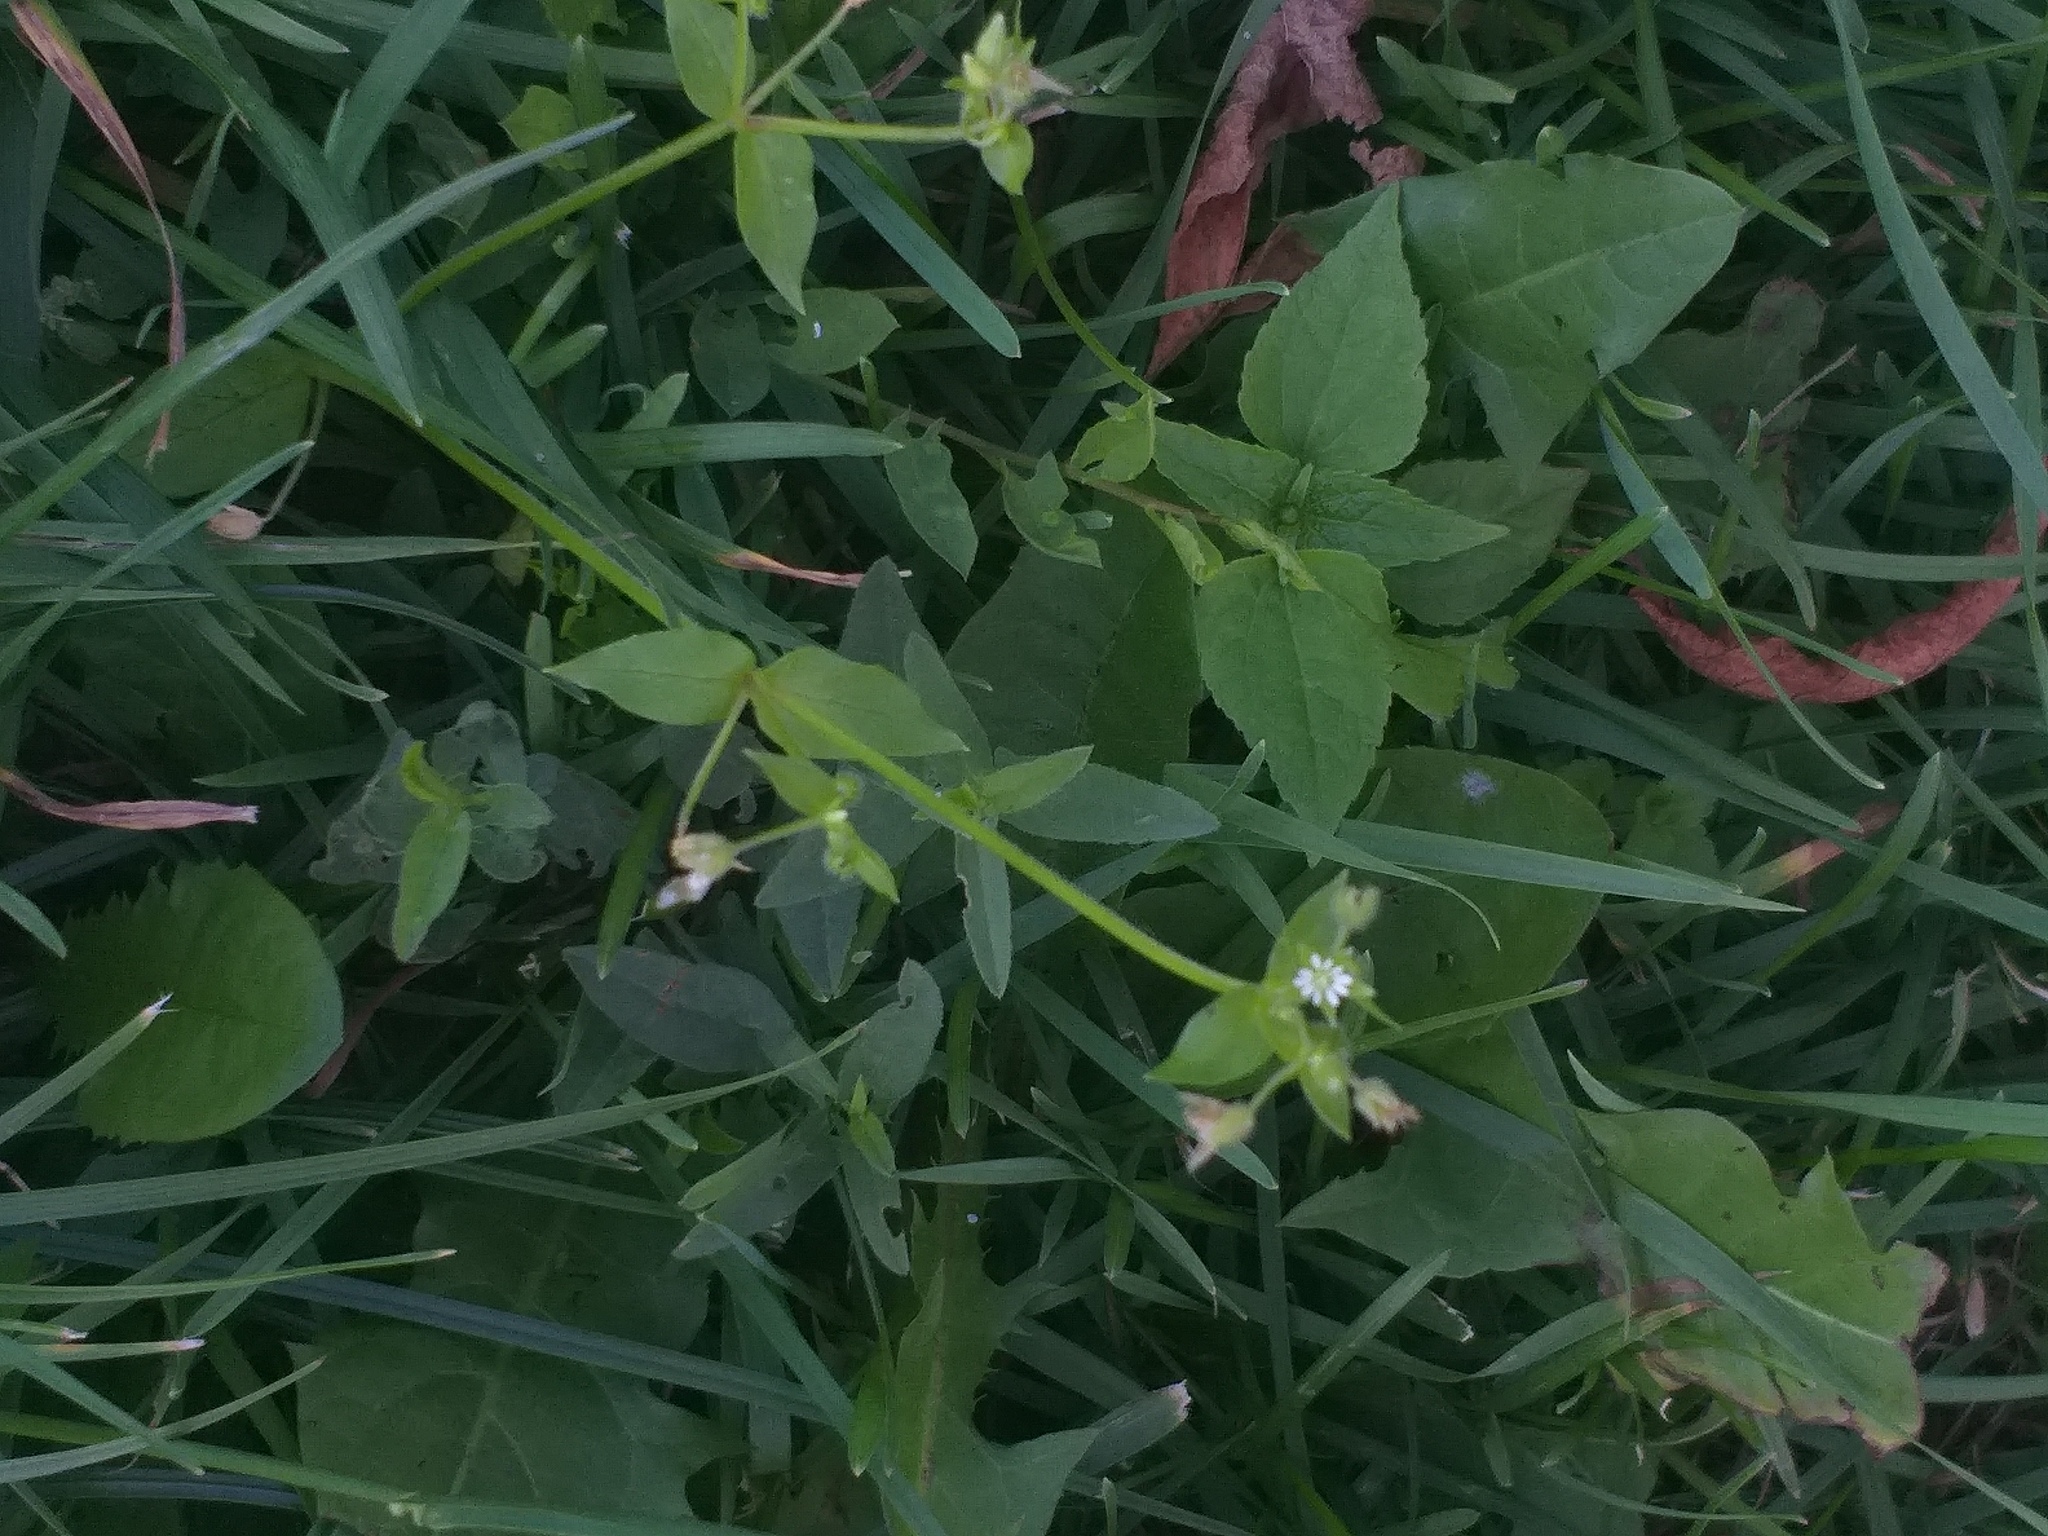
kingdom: Plantae
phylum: Tracheophyta
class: Magnoliopsida
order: Caryophyllales
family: Caryophyllaceae
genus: Stellaria
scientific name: Stellaria media
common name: Common chickweed
